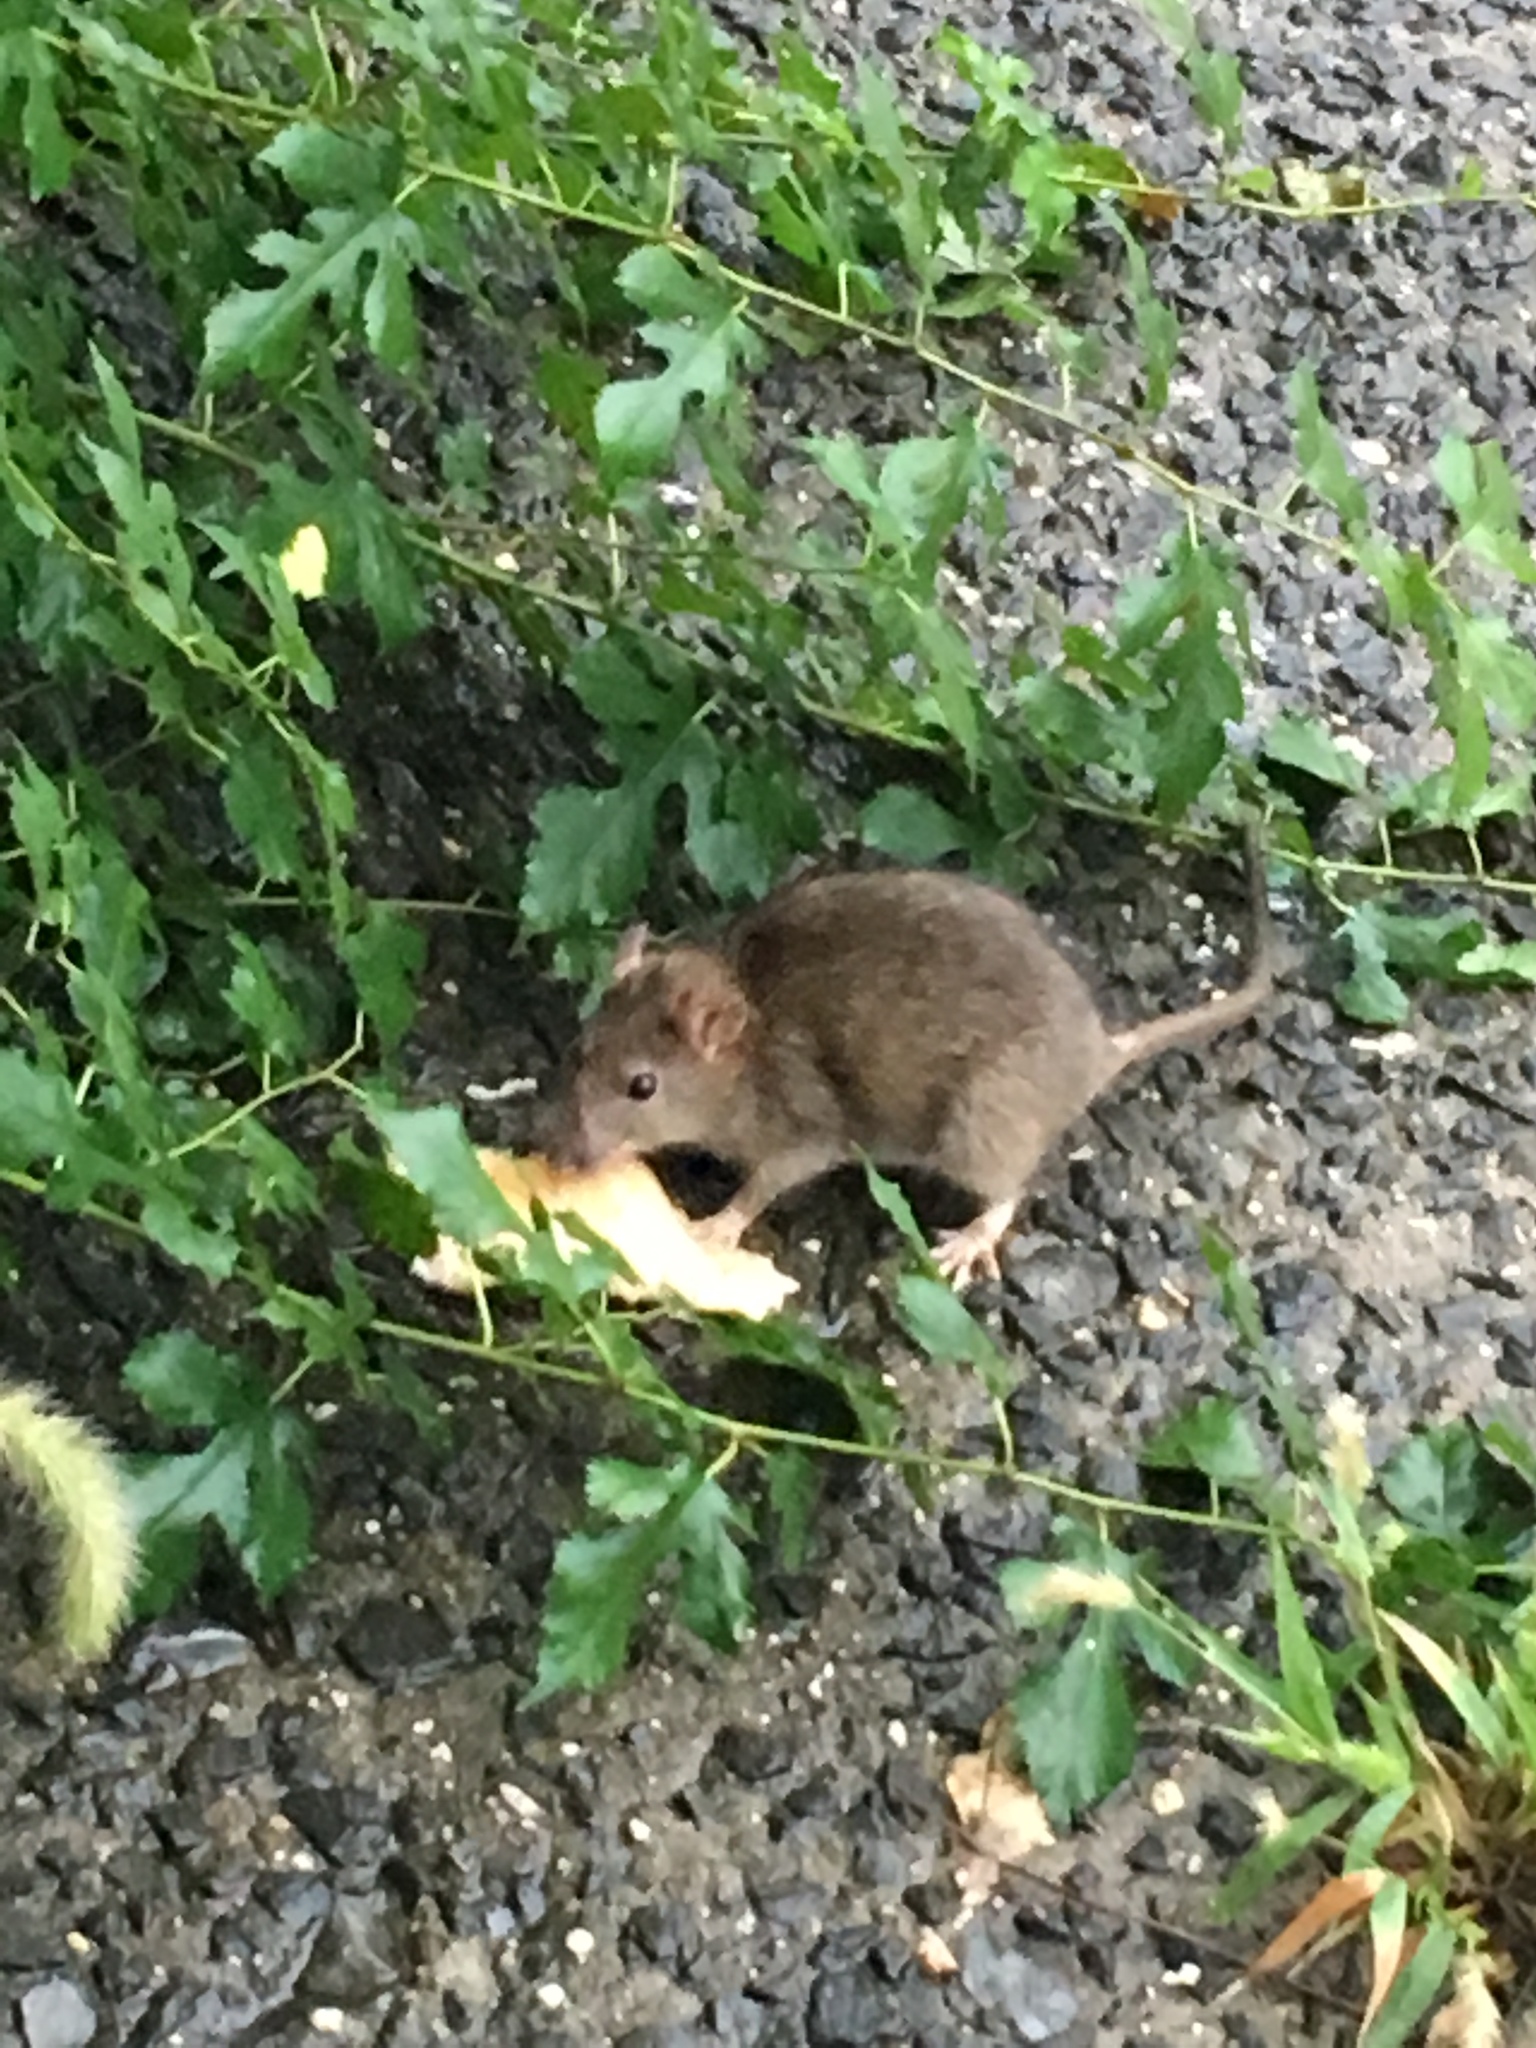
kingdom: Animalia
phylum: Chordata
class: Mammalia
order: Rodentia
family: Muridae
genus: Rattus
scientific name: Rattus norvegicus
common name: Brown rat
